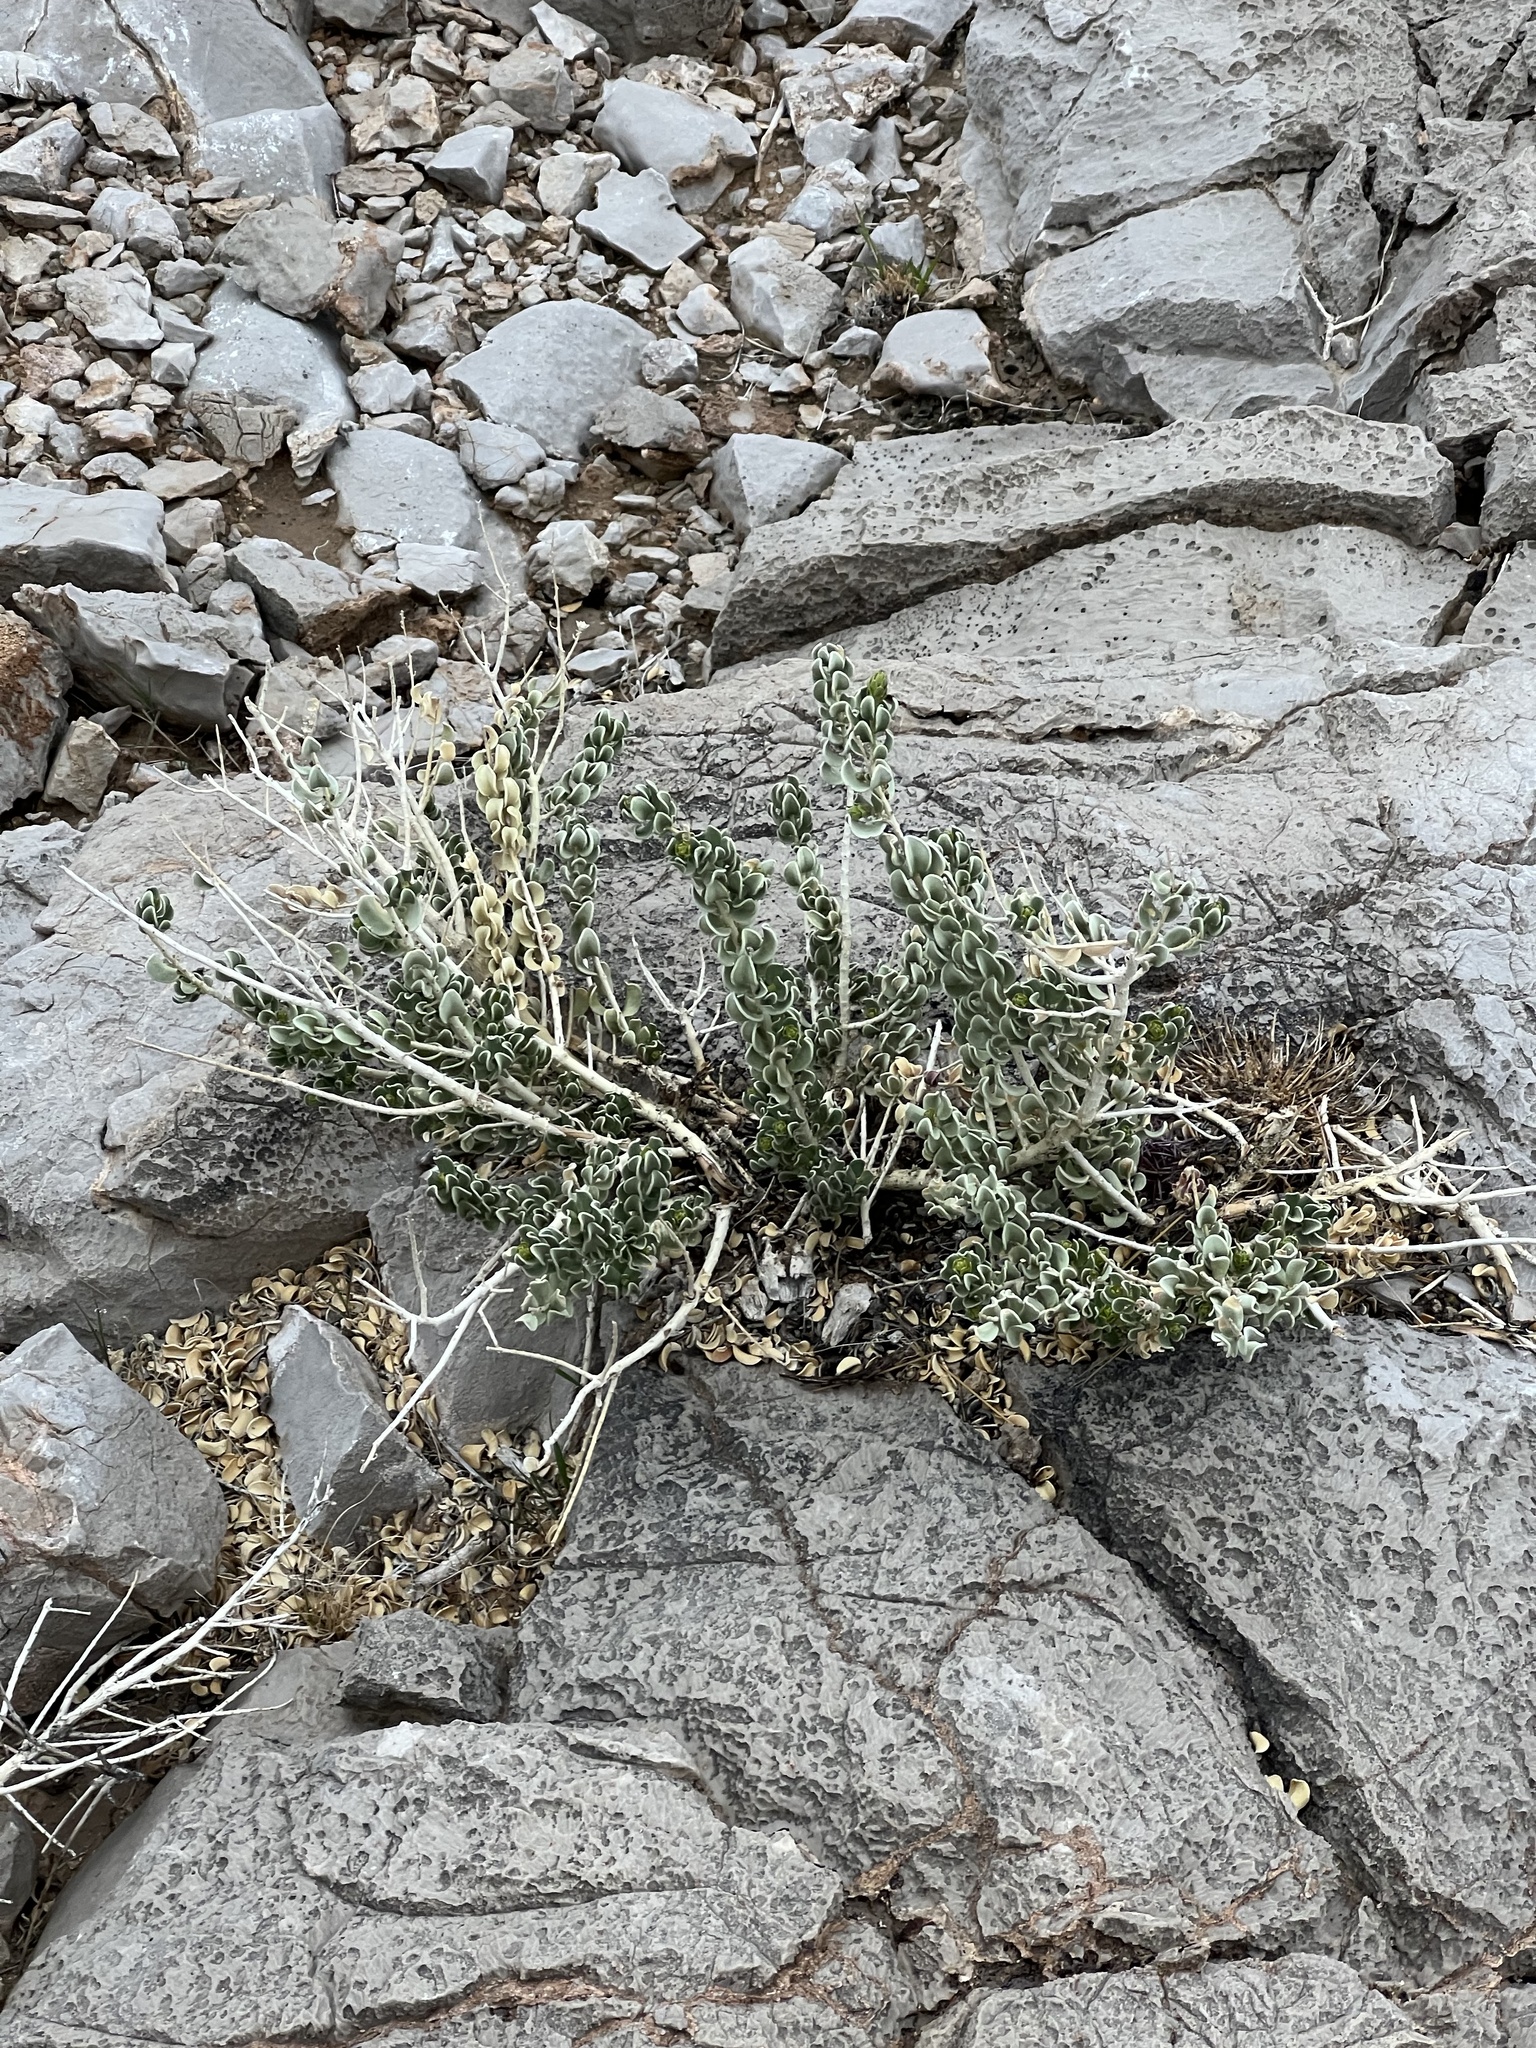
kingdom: Plantae
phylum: Tracheophyta
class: Magnoliopsida
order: Celastrales
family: Celastraceae
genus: Mortonia
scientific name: Mortonia utahensis
